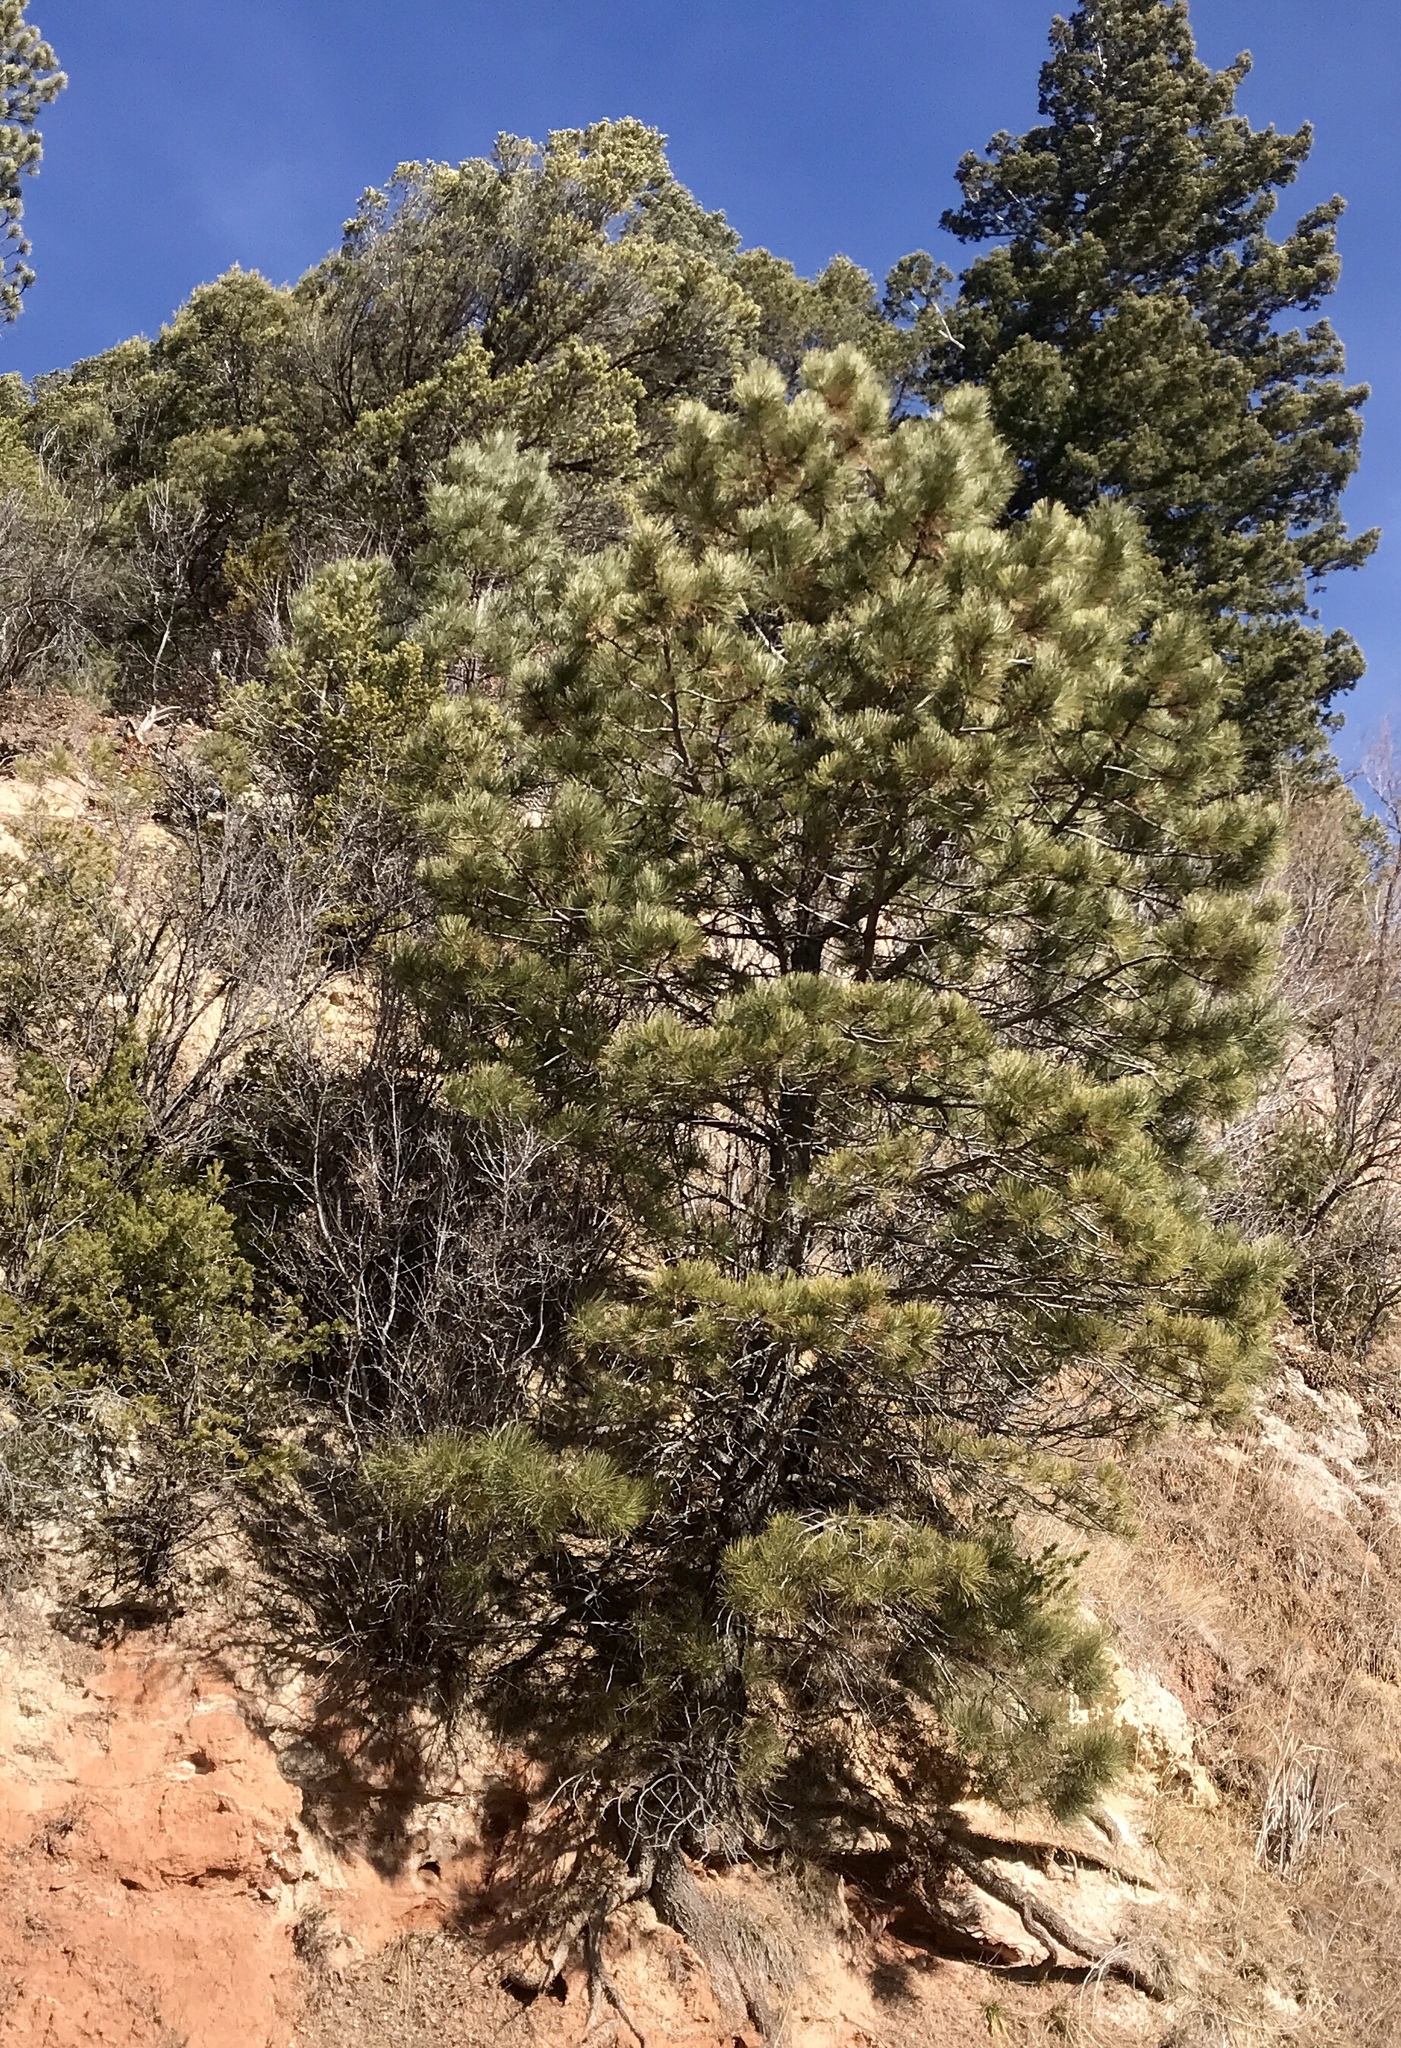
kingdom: Plantae
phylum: Tracheophyta
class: Pinopsida
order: Pinales
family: Pinaceae
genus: Pinus
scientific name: Pinus ponderosa
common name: Western yellow-pine
